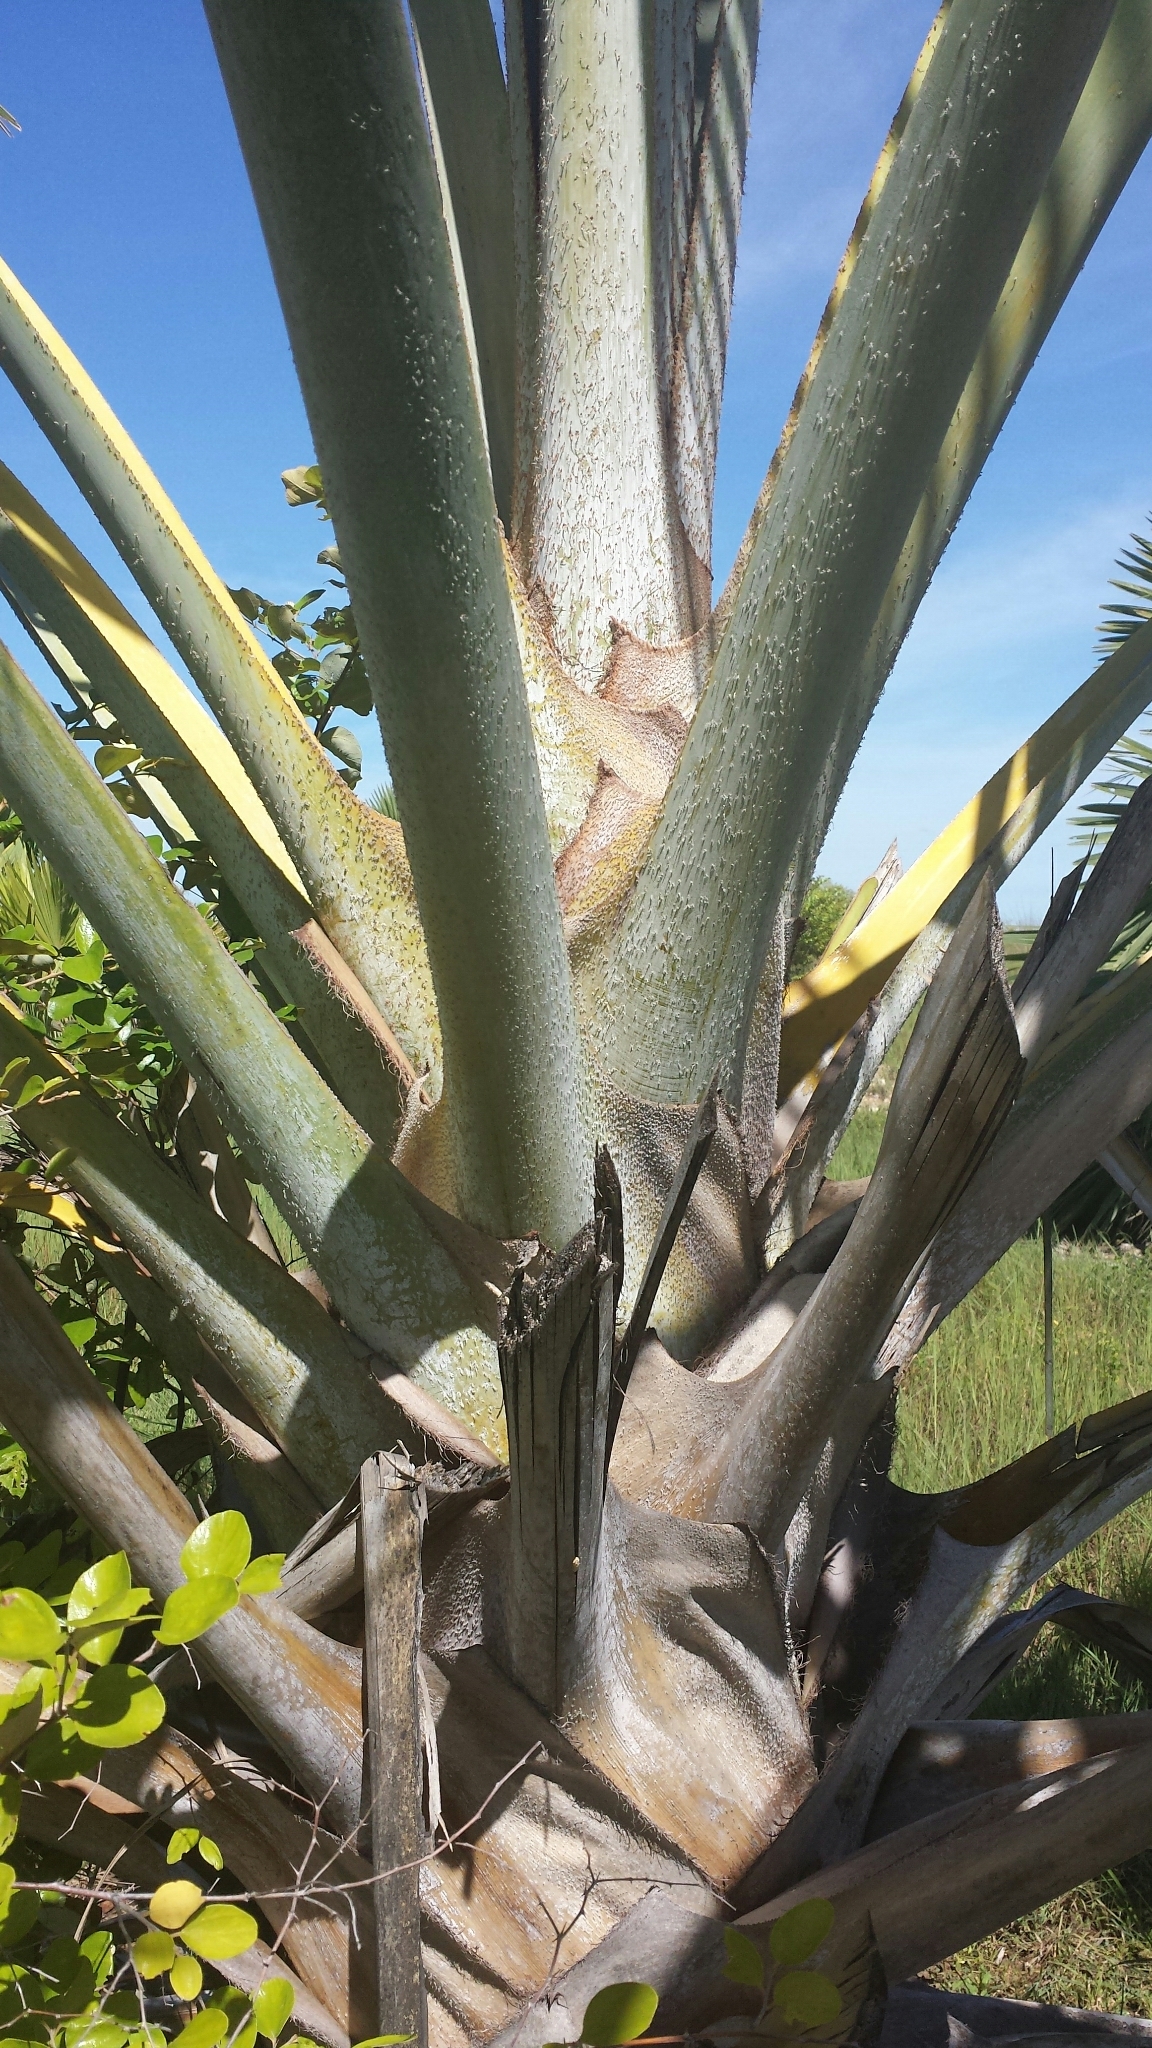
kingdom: Plantae
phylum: Tracheophyta
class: Liliopsida
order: Arecales
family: Arecaceae
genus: Bismarckia
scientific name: Bismarckia nobilis
